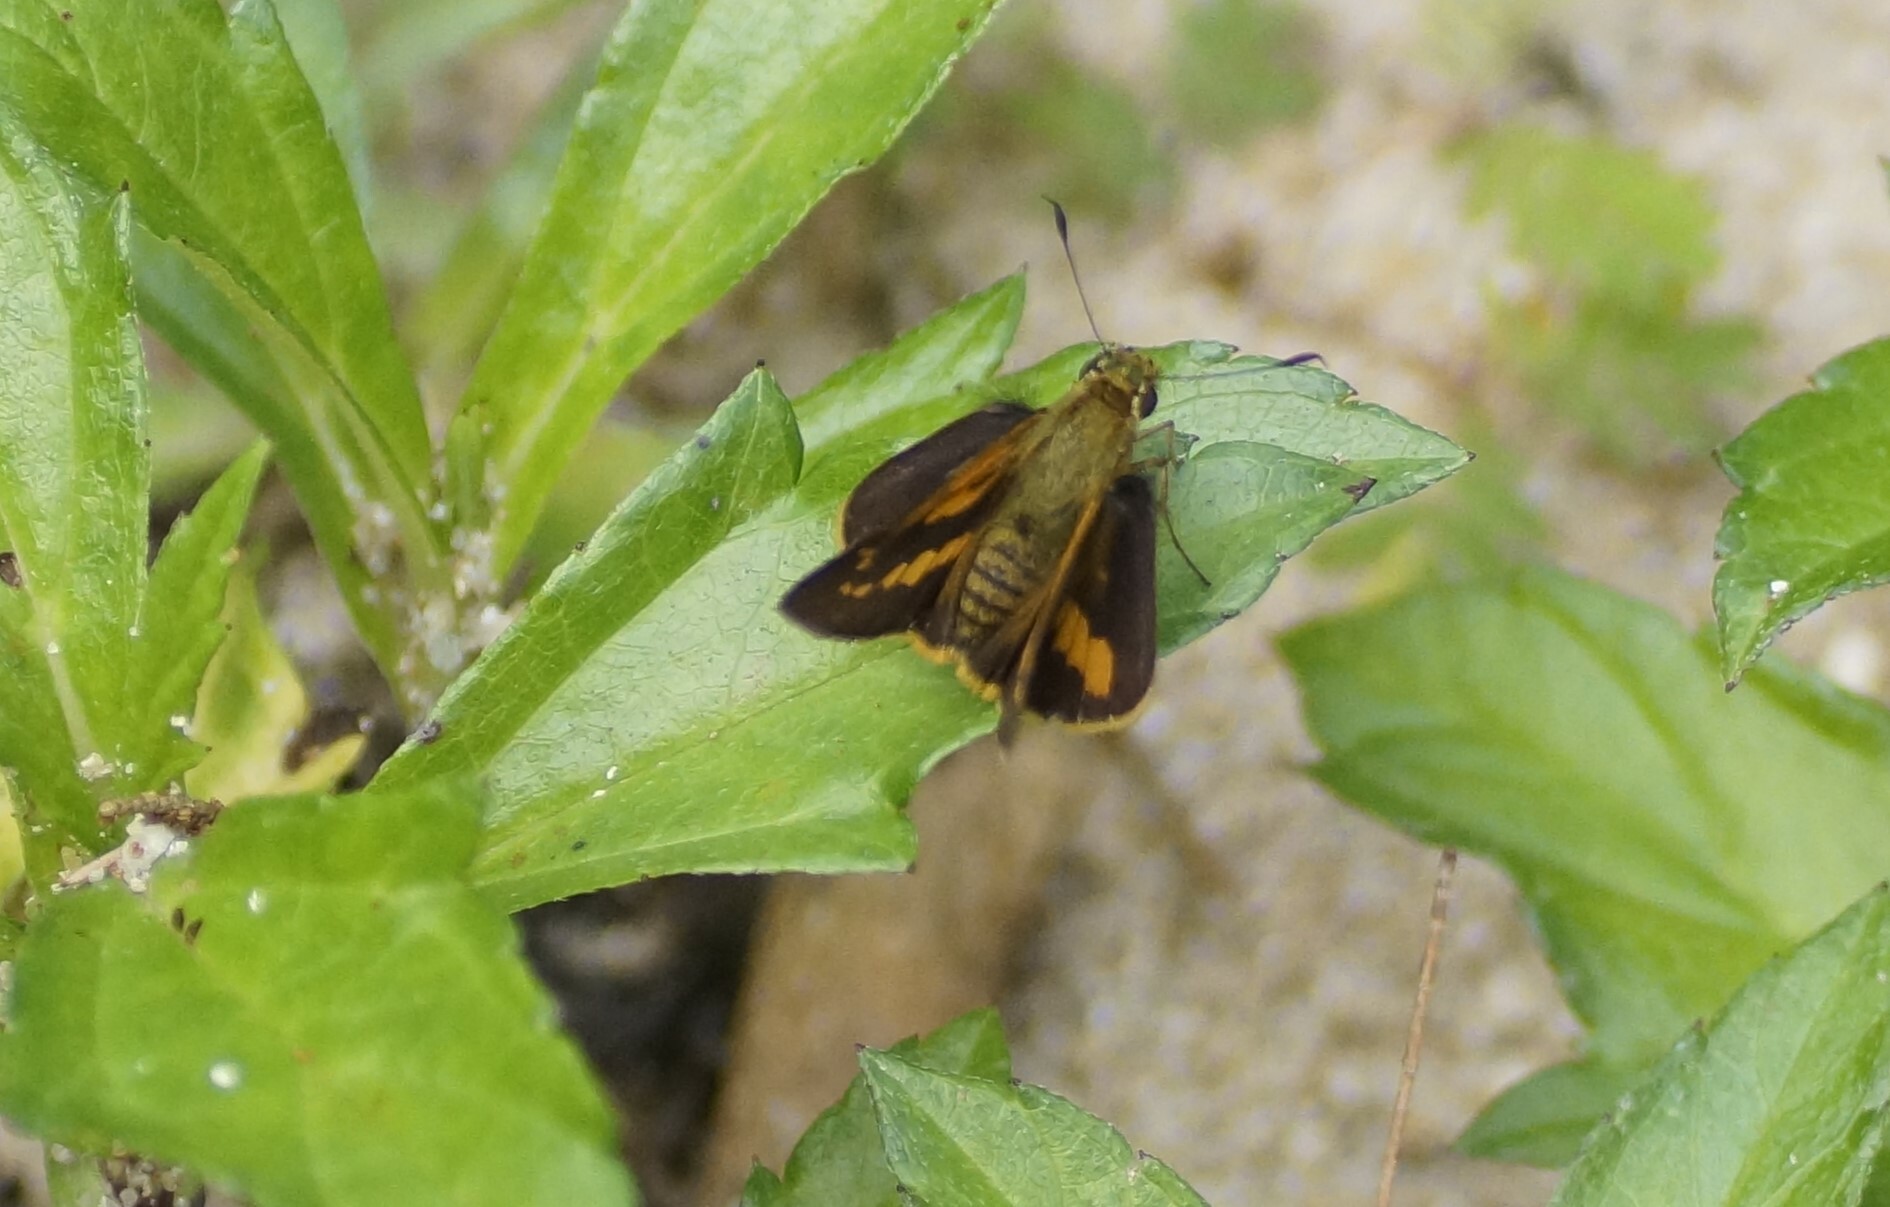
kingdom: Animalia
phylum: Arthropoda
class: Insecta
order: Lepidoptera
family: Hesperiidae
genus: Arrhenes
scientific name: Arrhenes dschilus
